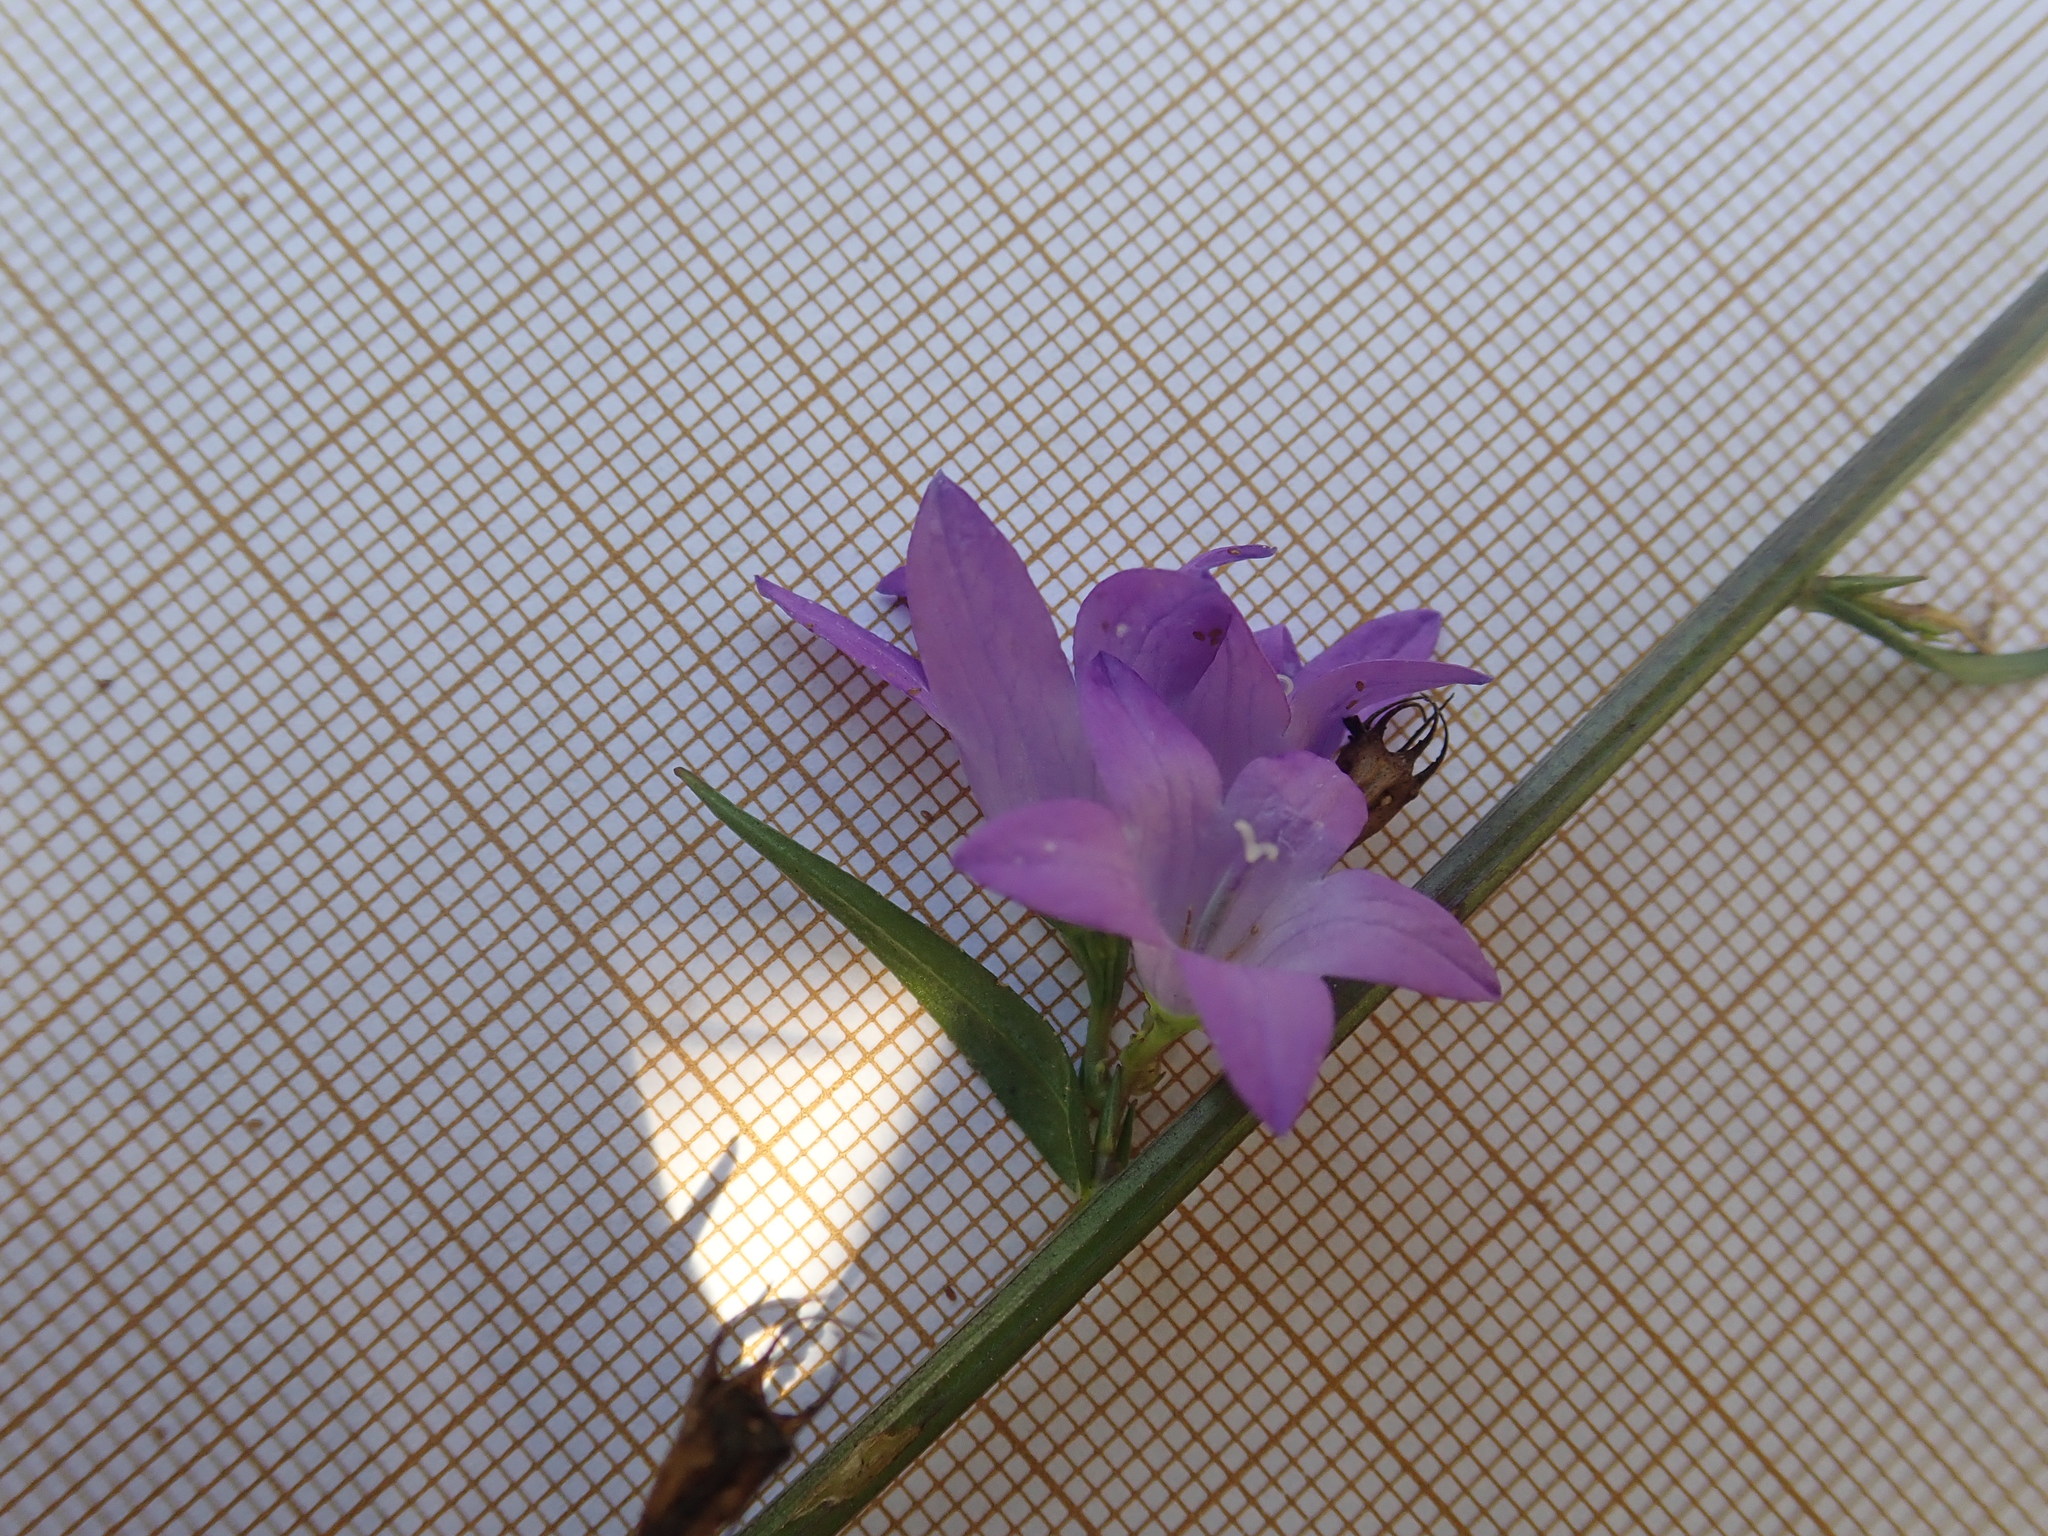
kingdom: Plantae
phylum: Tracheophyta
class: Magnoliopsida
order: Asterales
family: Campanulaceae
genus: Campanula
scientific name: Campanula rapunculus
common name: Rampion bellflower
